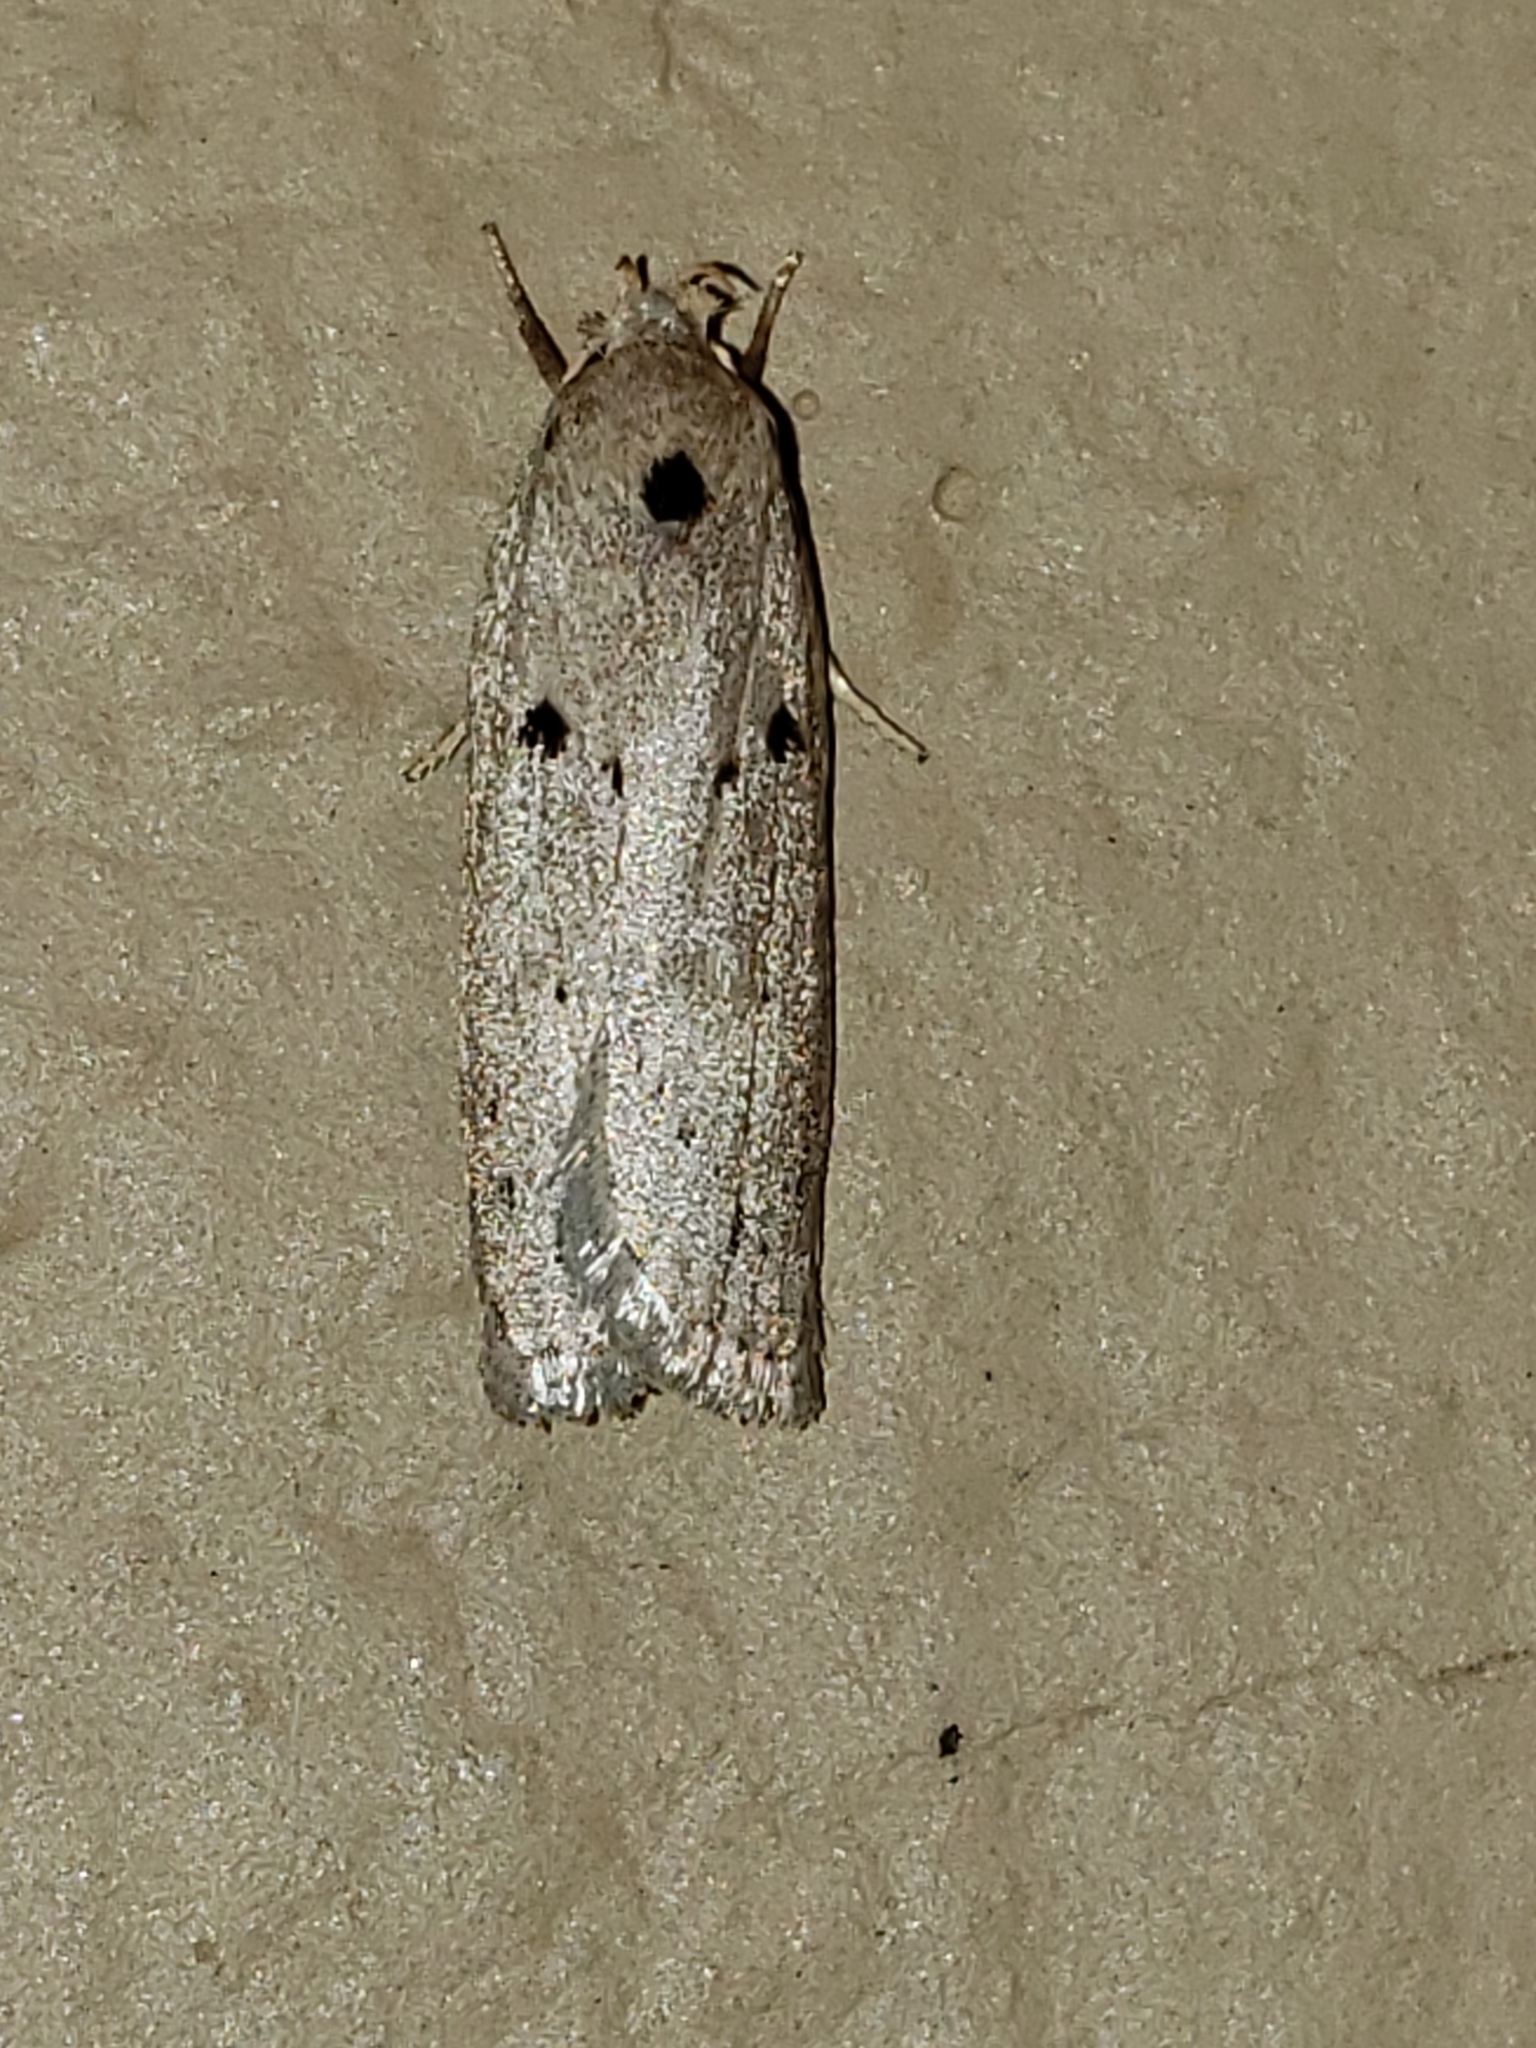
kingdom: Animalia
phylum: Arthropoda
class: Insecta
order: Lepidoptera
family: Peleopodidae
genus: Scythropiodes
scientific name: Scythropiodes issikii
